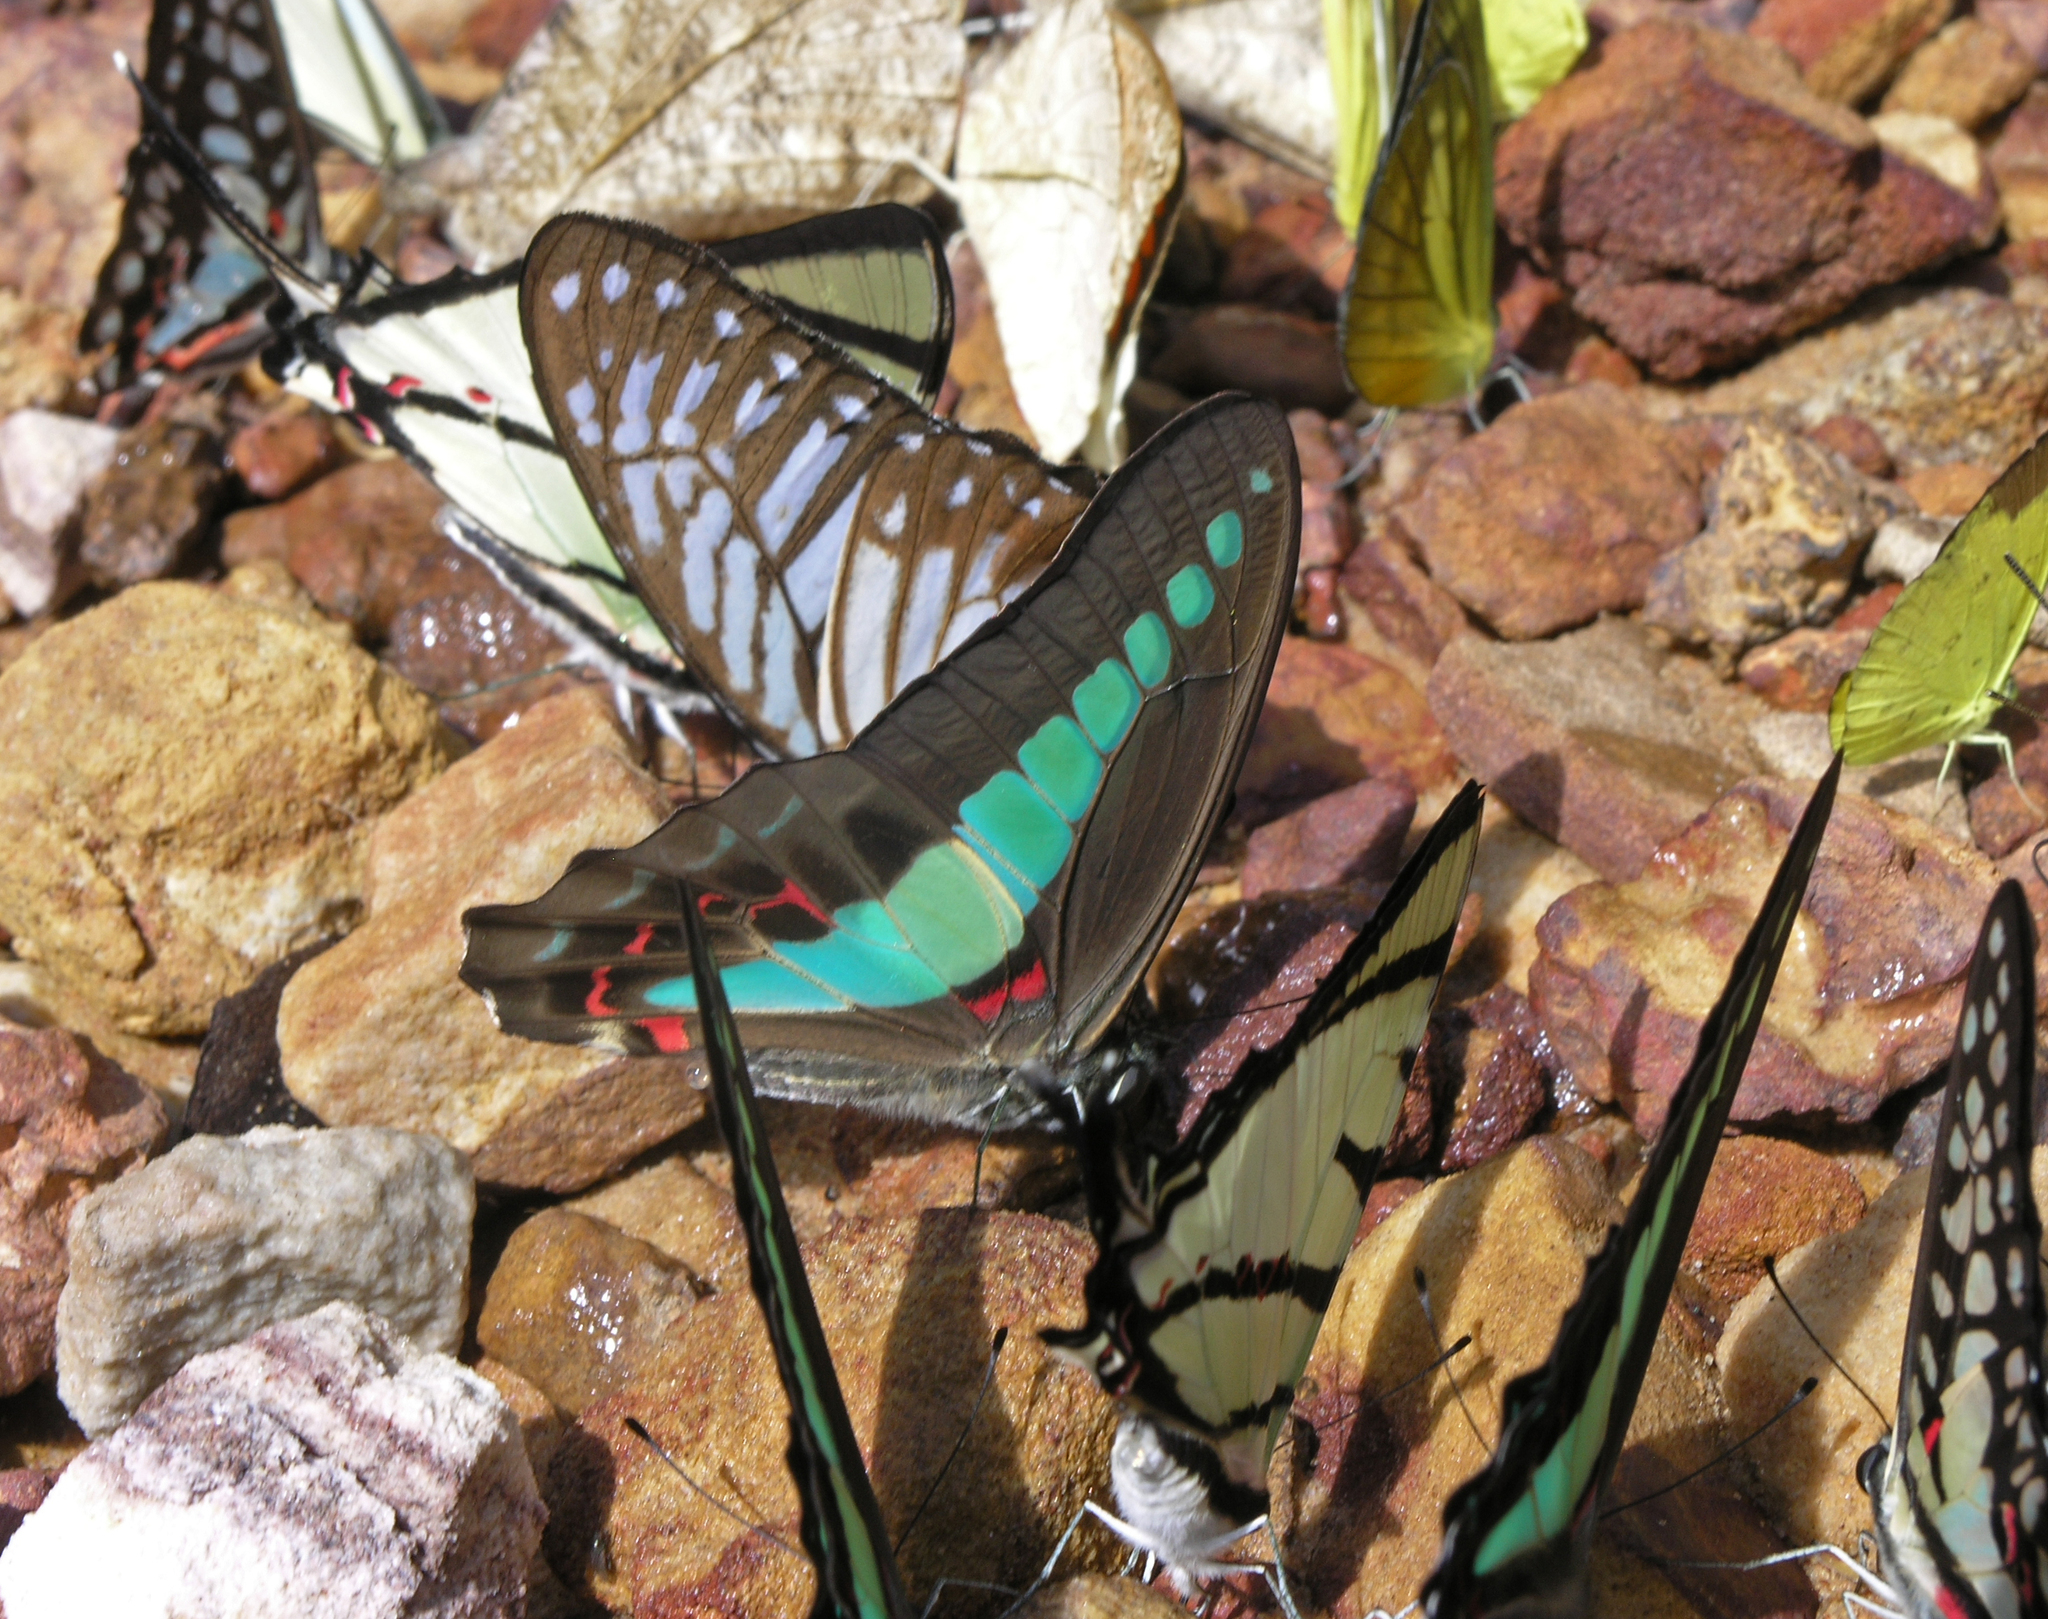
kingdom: Fungi
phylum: Ascomycota
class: Sordariomycetes
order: Microascales
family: Microascaceae
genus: Graphium
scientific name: Graphium sarpedon
